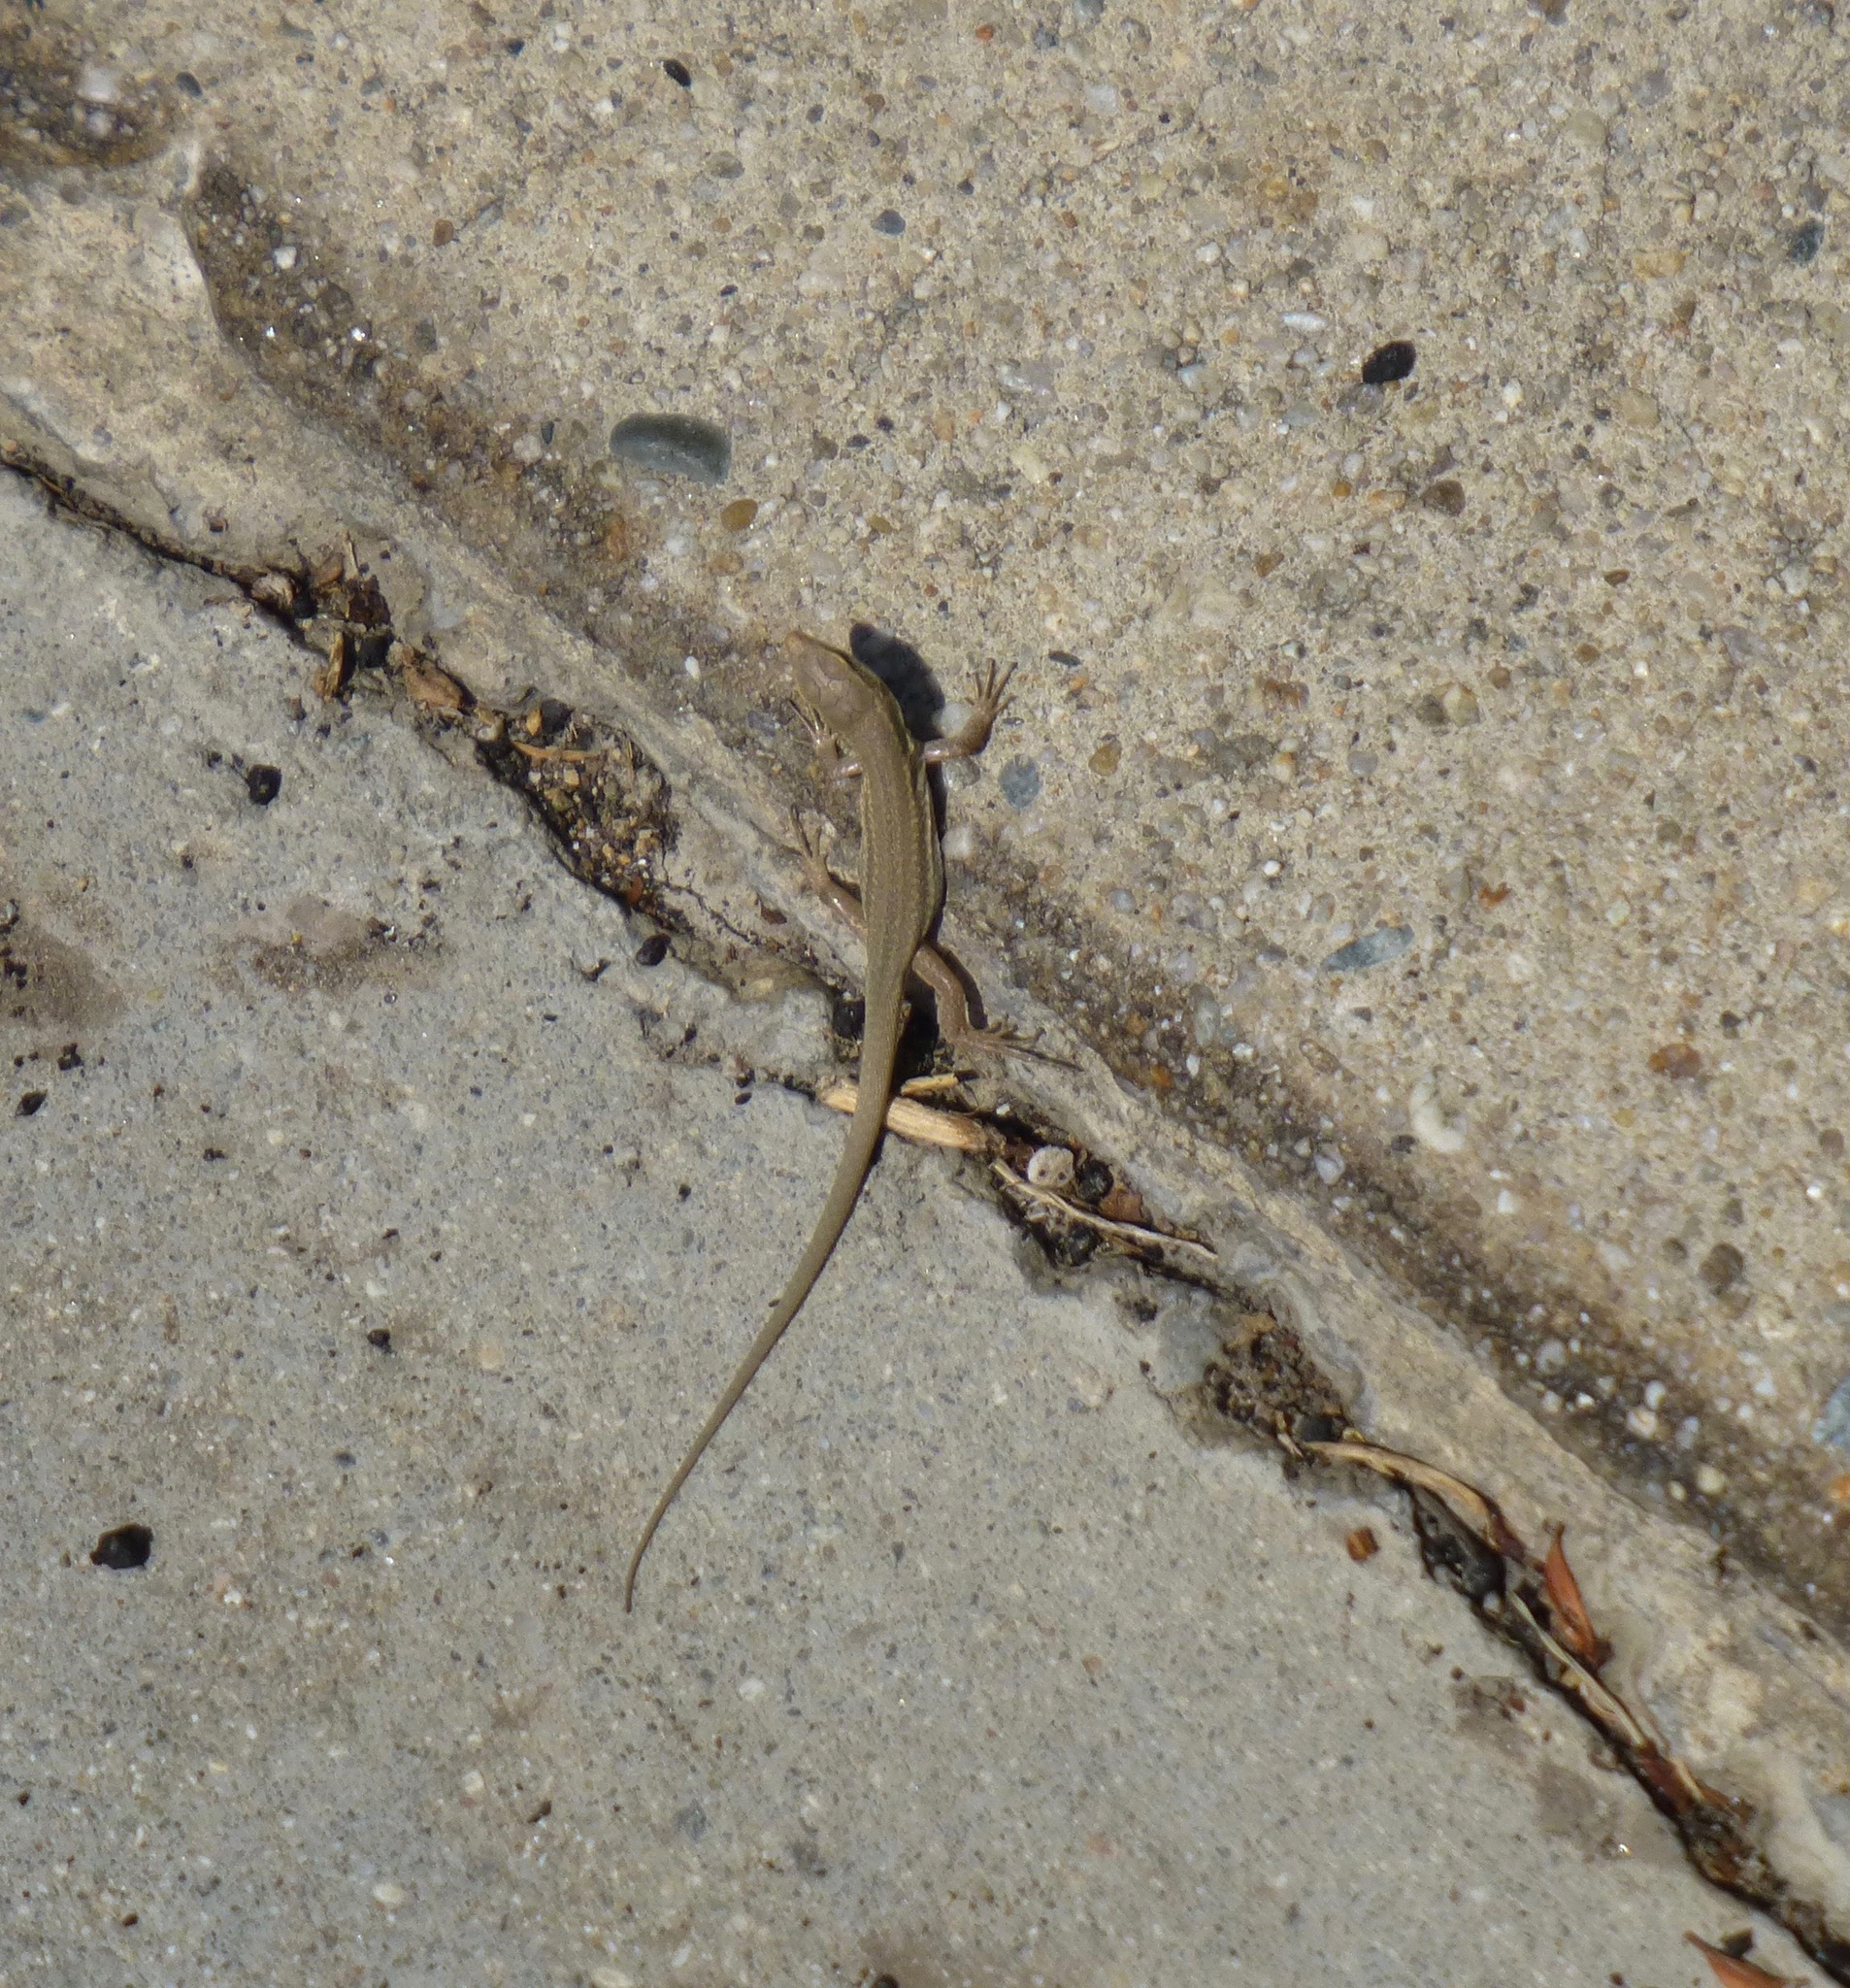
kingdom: Animalia
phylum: Chordata
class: Squamata
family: Lacertidae
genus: Podarcis
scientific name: Podarcis siculus
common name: Italian wall lizard
